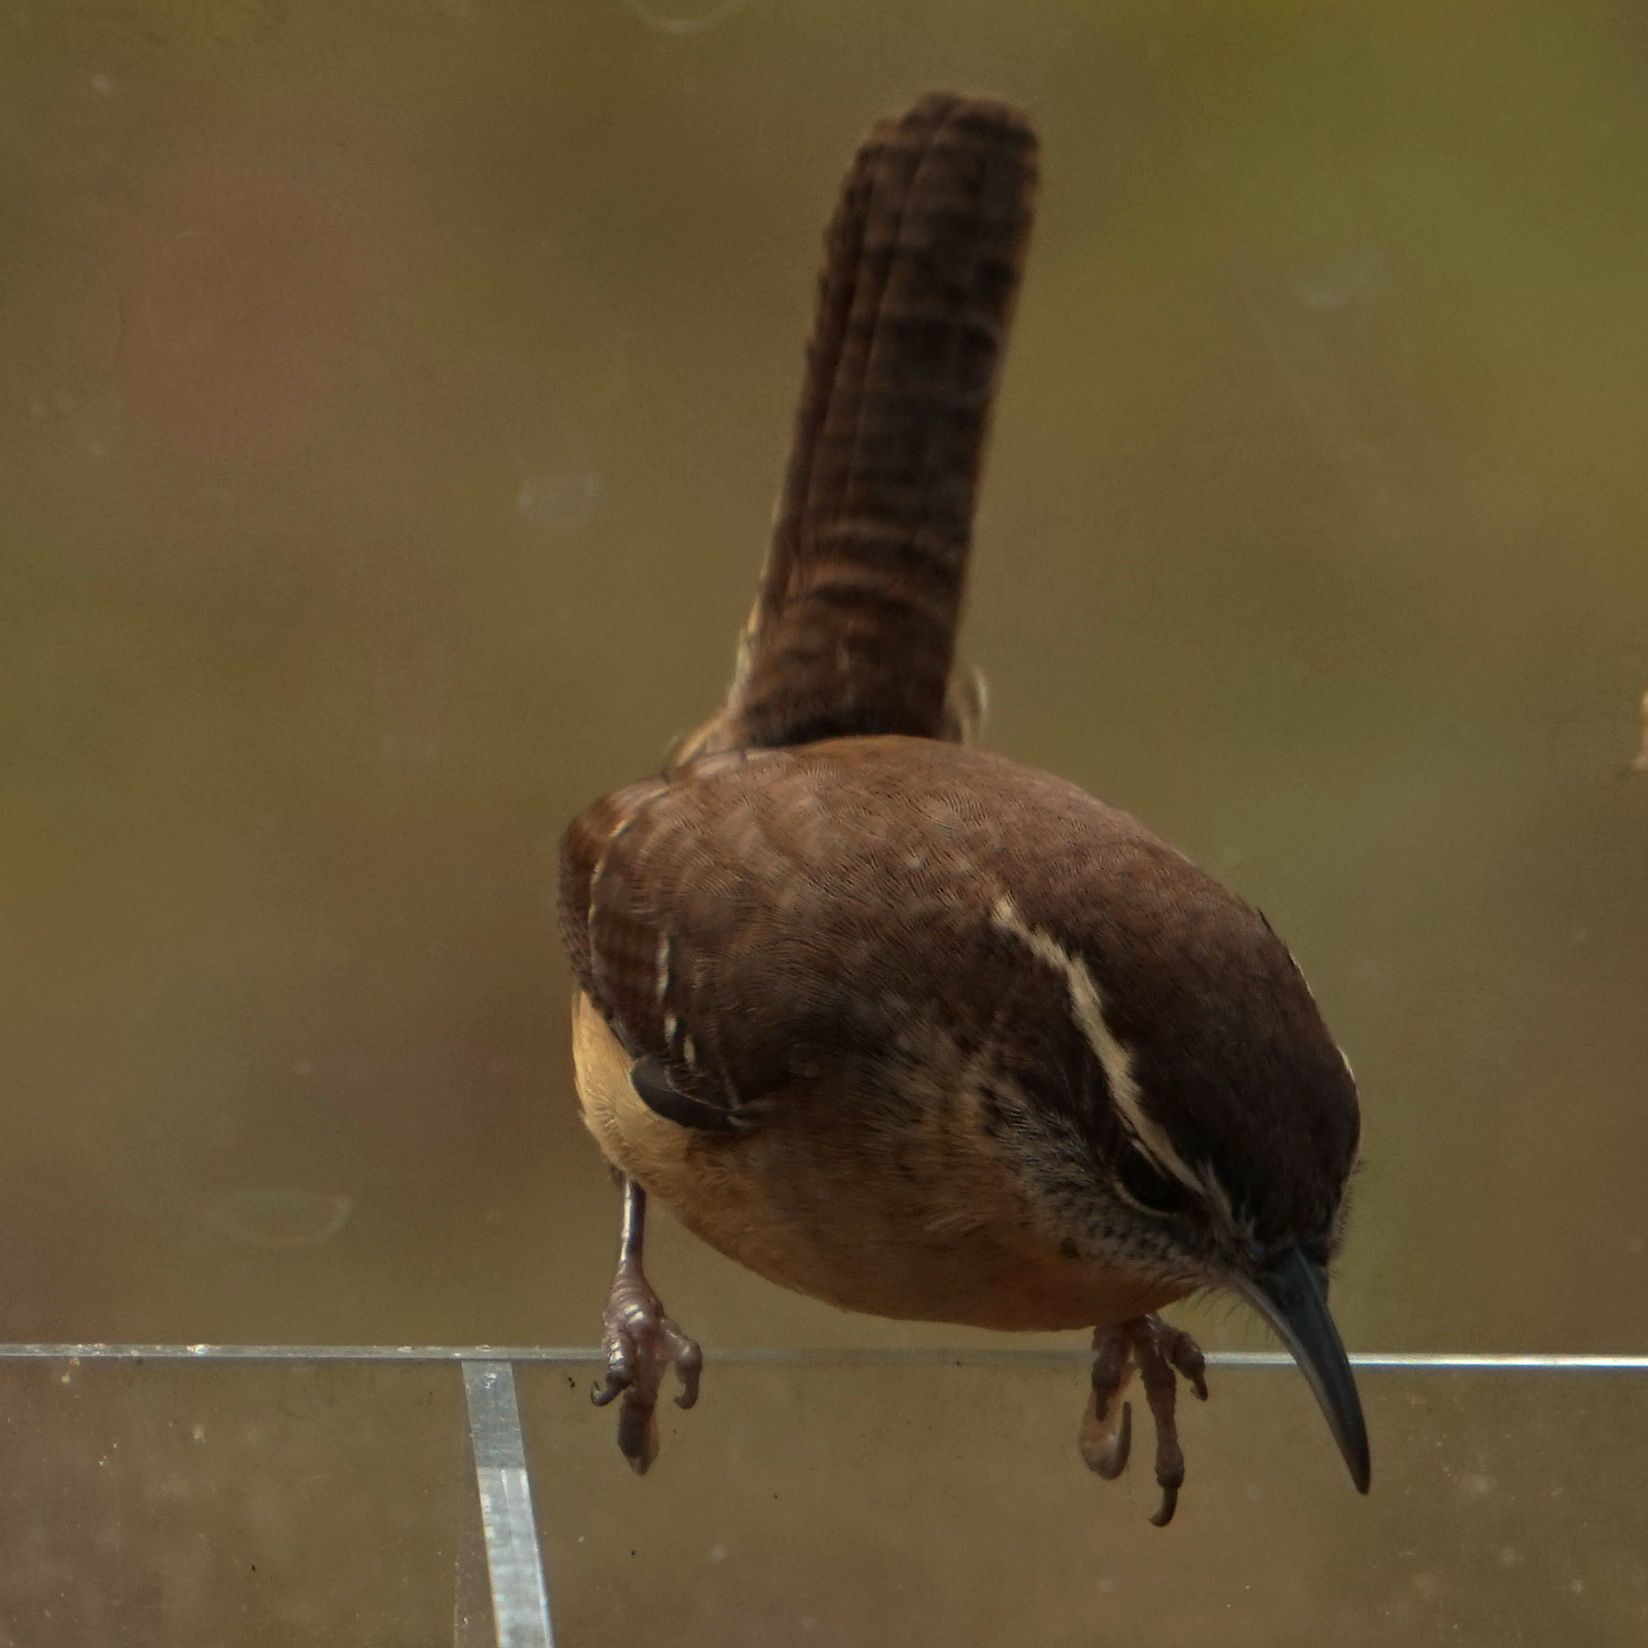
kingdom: Animalia
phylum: Chordata
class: Aves
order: Passeriformes
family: Troglodytidae
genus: Thryothorus
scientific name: Thryothorus ludovicianus
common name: Carolina wren
